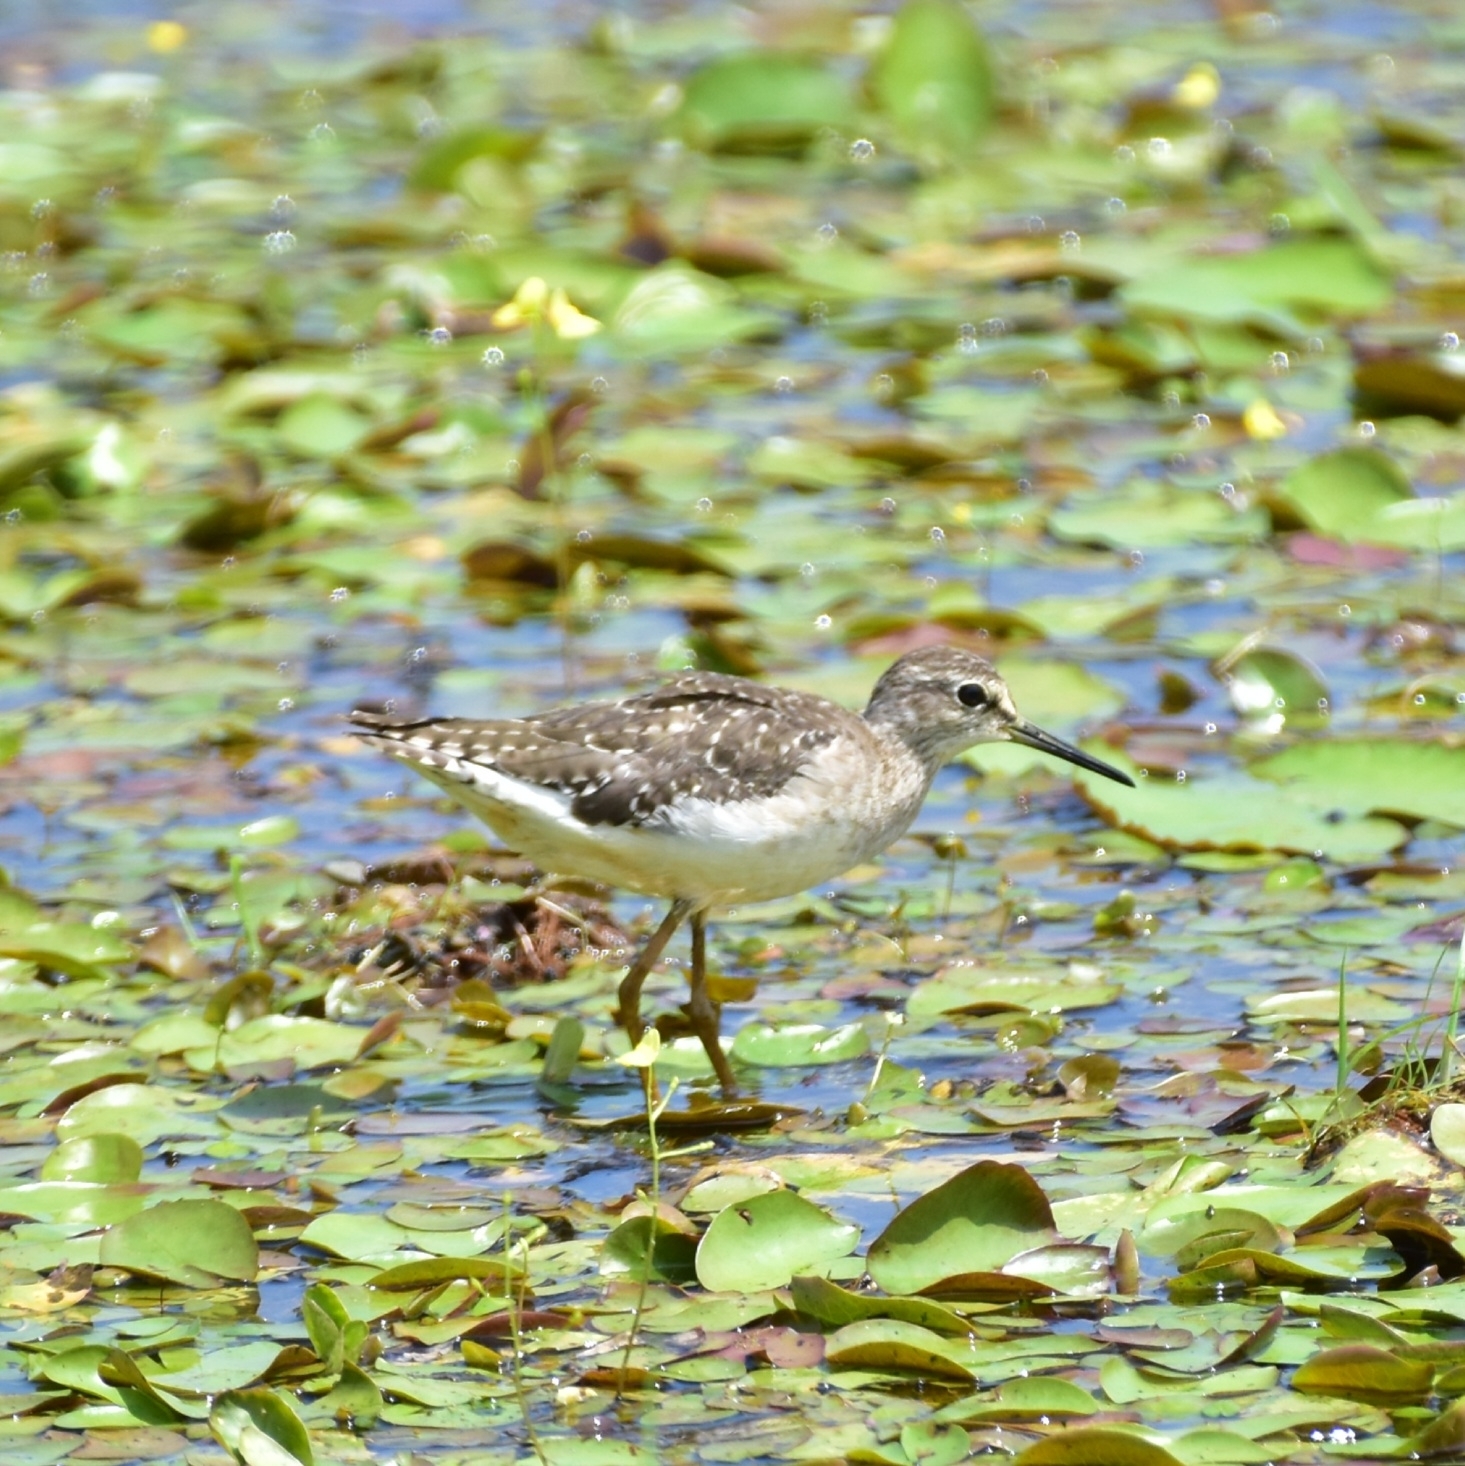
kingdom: Animalia
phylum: Chordata
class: Aves
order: Charadriiformes
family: Scolopacidae
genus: Tringa
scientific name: Tringa glareola
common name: Wood sandpiper
